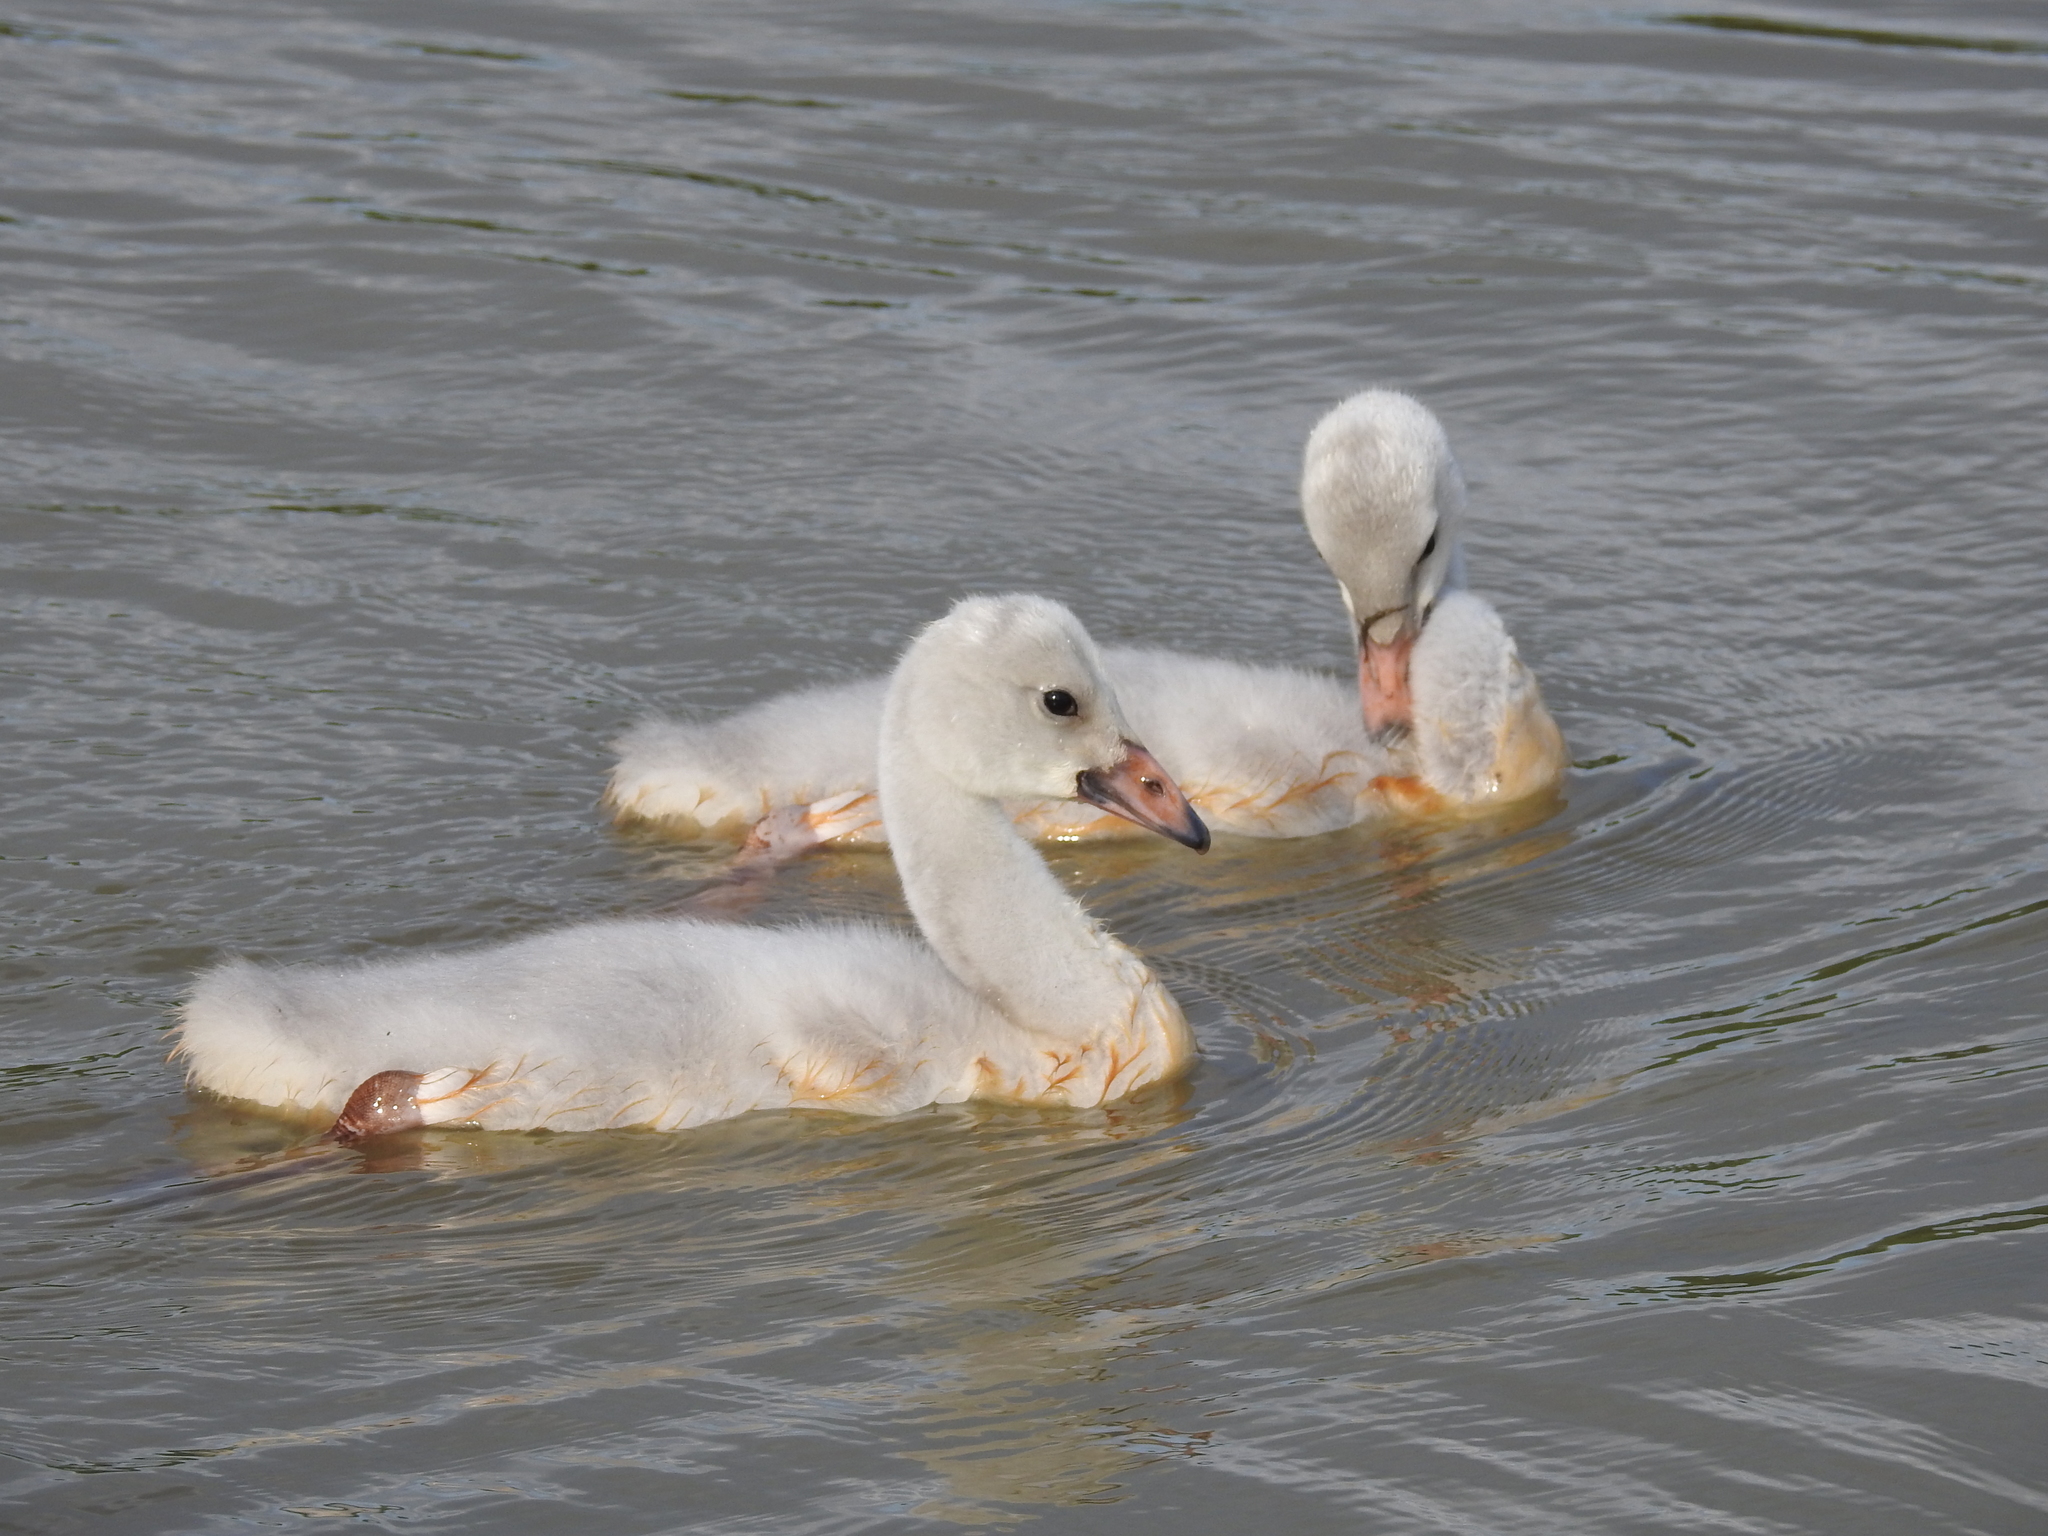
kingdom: Animalia
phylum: Chordata
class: Aves
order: Anseriformes
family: Anatidae
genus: Cygnus
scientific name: Cygnus buccinator
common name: Trumpeter swan
